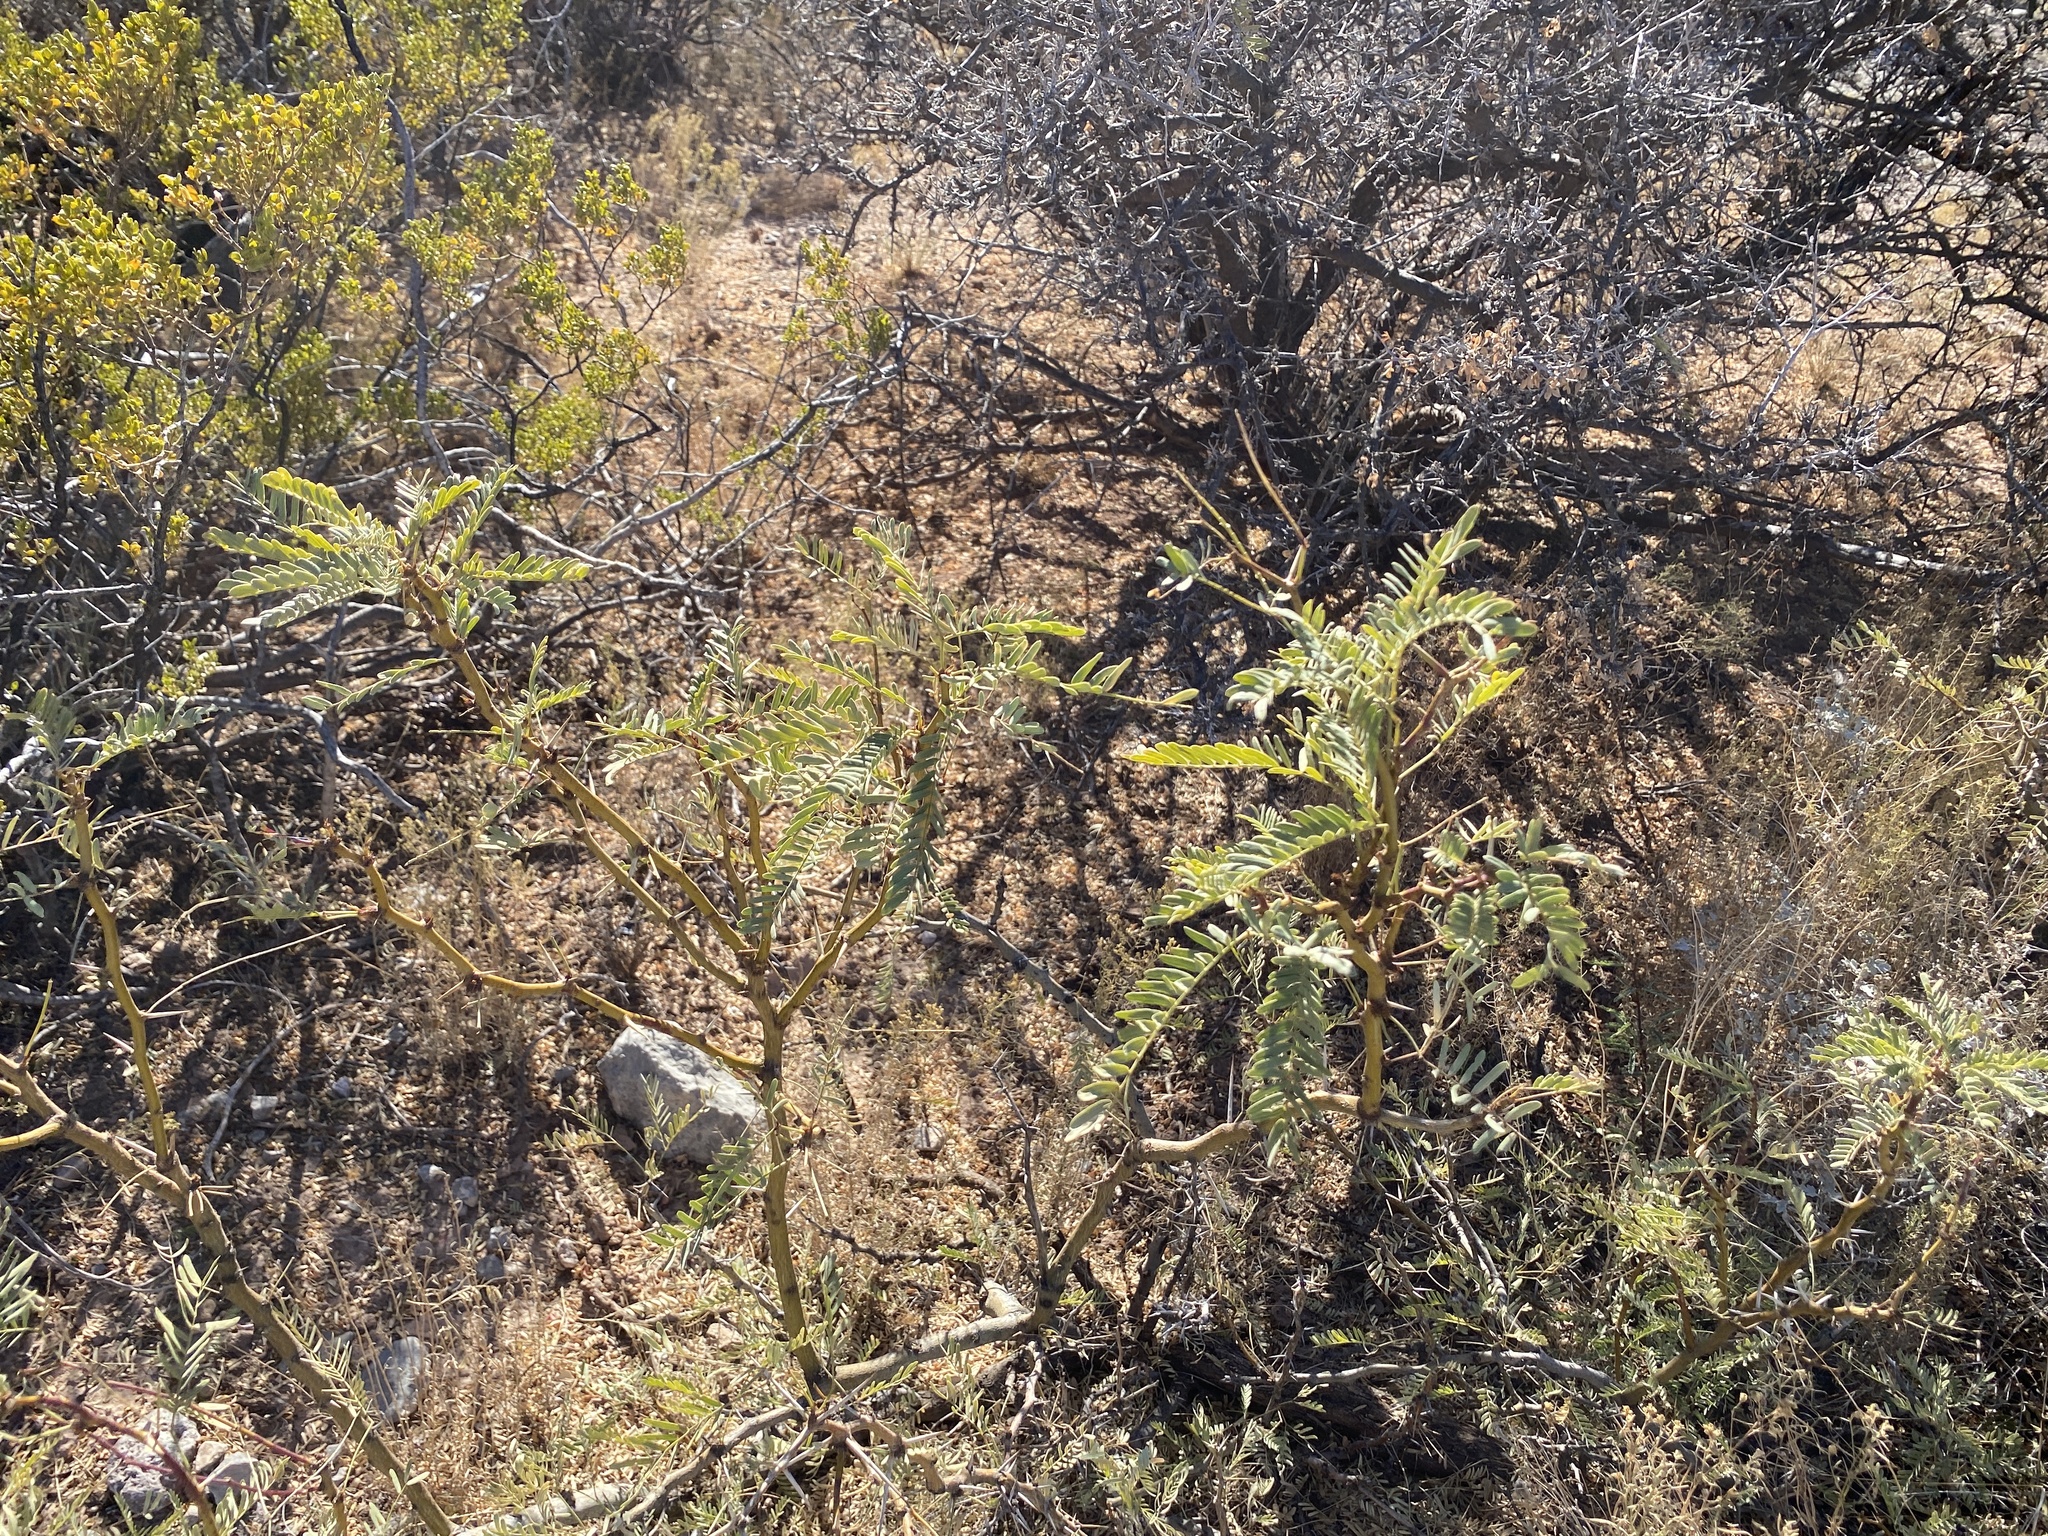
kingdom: Plantae
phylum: Tracheophyta
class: Magnoliopsida
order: Fabales
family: Fabaceae
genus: Prosopis
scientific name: Prosopis glandulosa
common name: Honey mesquite
